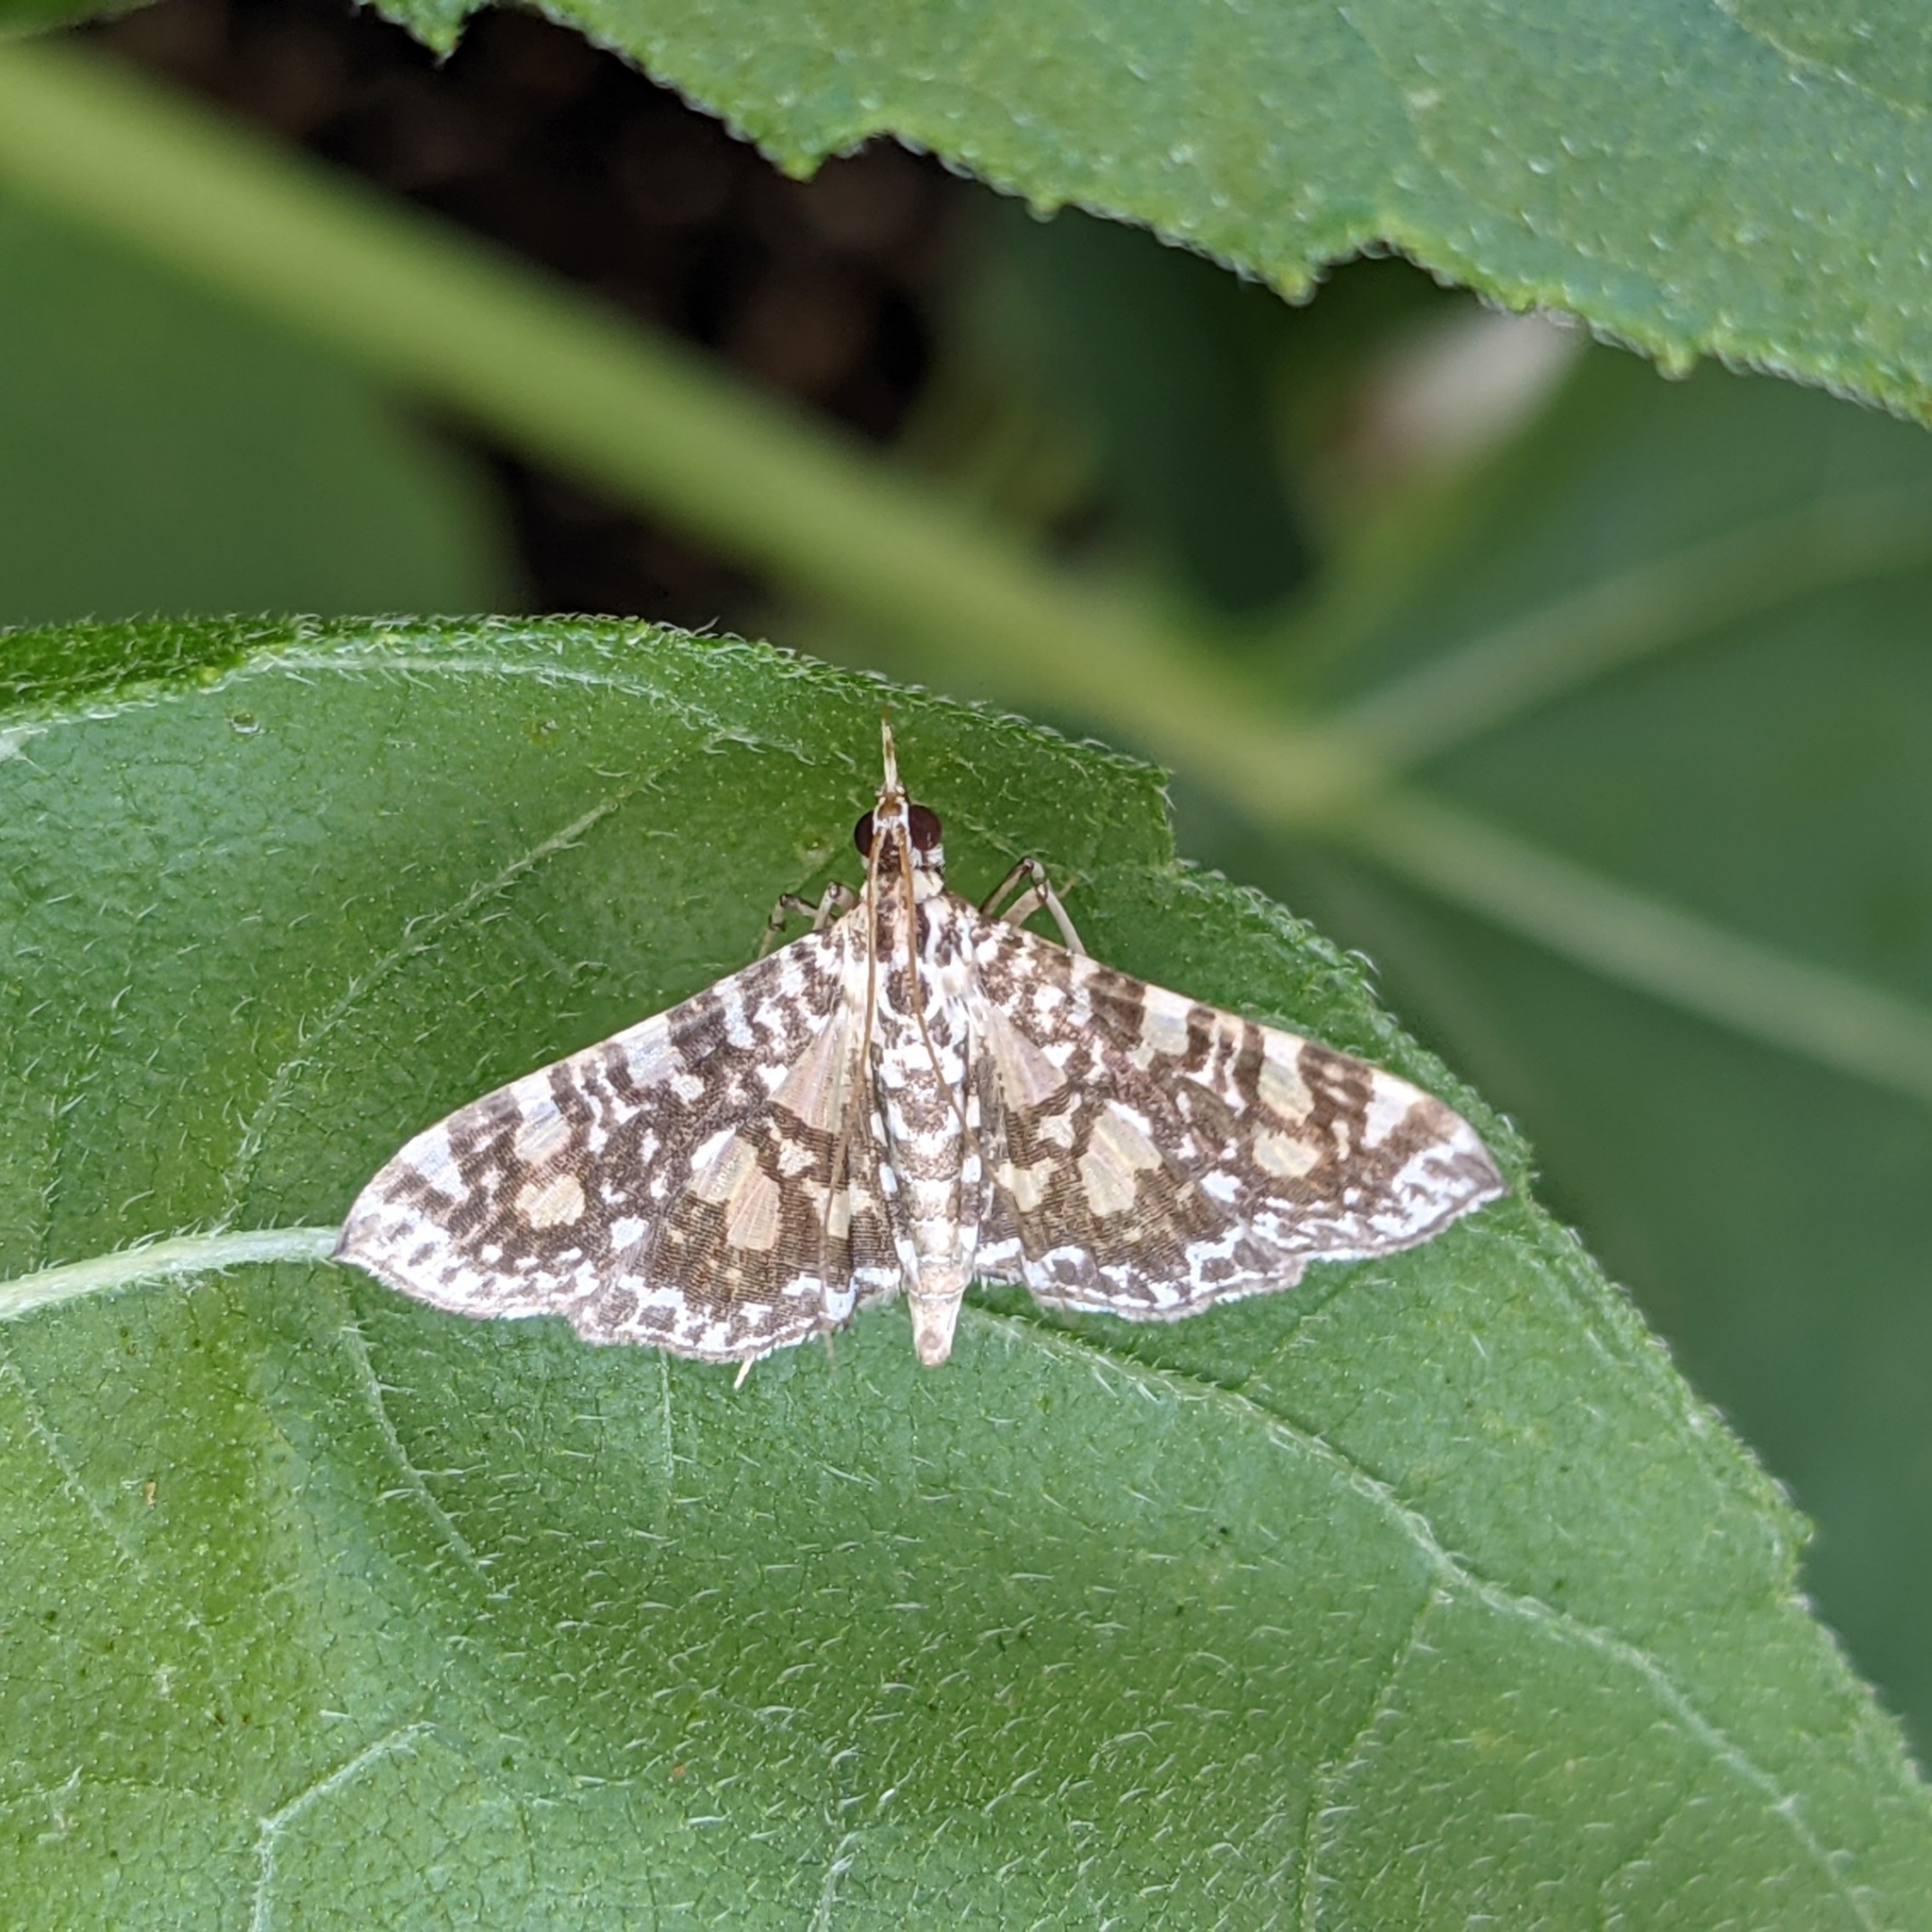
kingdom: Animalia
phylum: Arthropoda
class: Insecta
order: Lepidoptera
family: Crambidae
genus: Glyphodes
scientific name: Glyphodes onychinalis
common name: Swan plant moth
